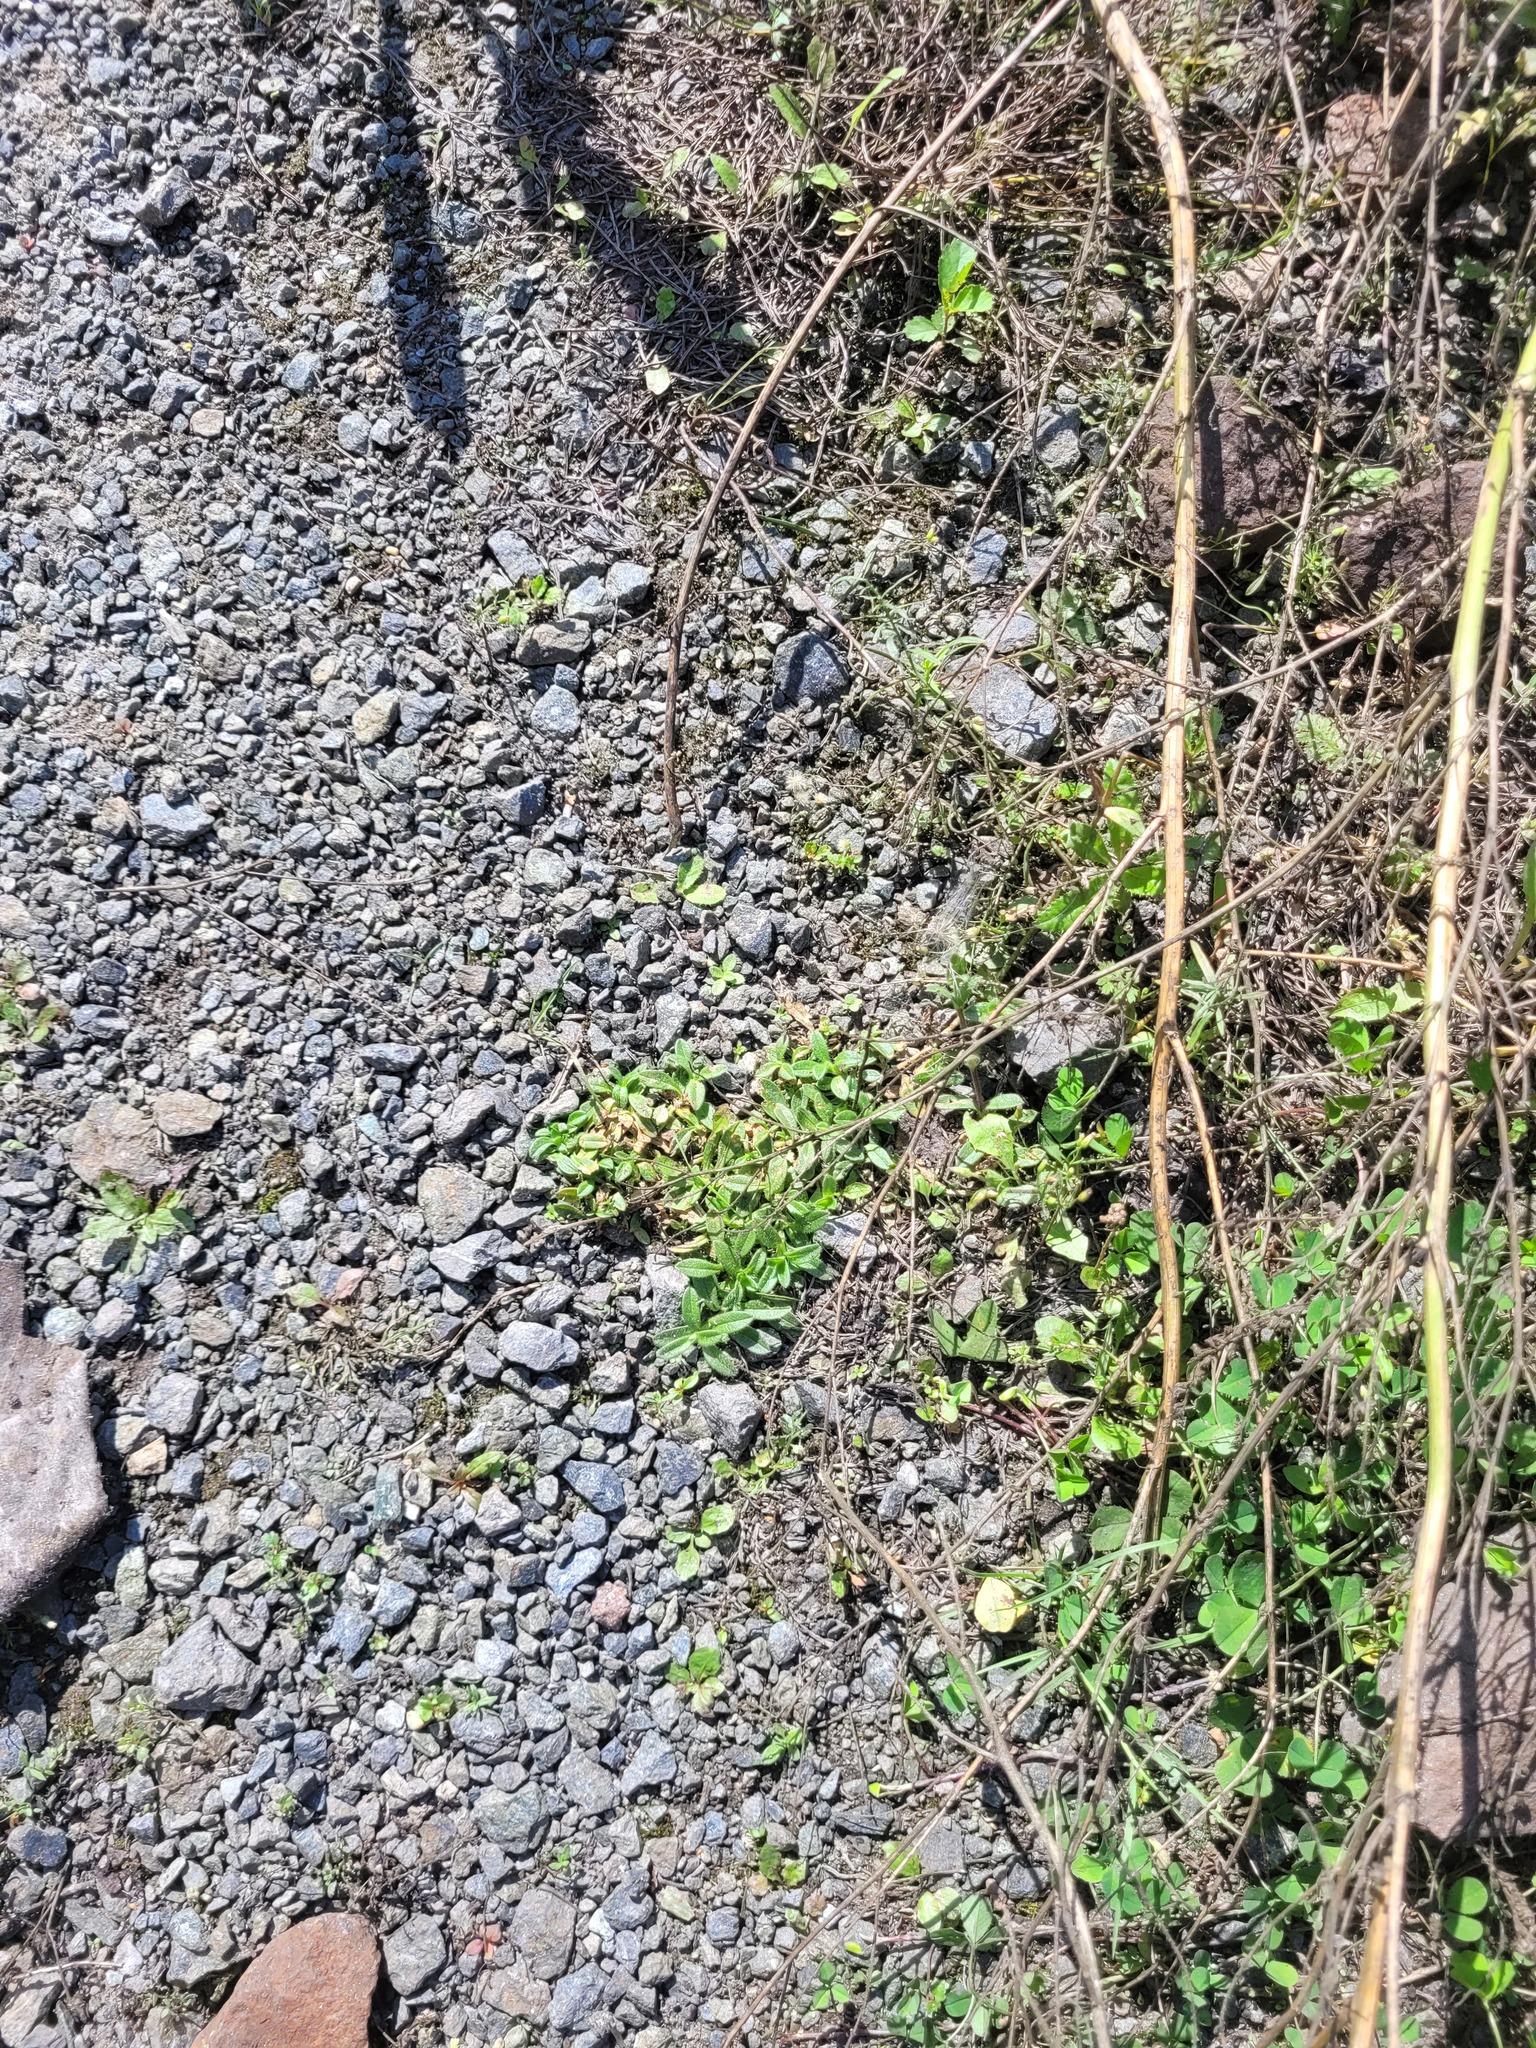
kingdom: Plantae
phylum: Tracheophyta
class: Magnoliopsida
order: Caryophyllales
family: Caryophyllaceae
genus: Cerastium
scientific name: Cerastium holosteoides
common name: Big chickweed
